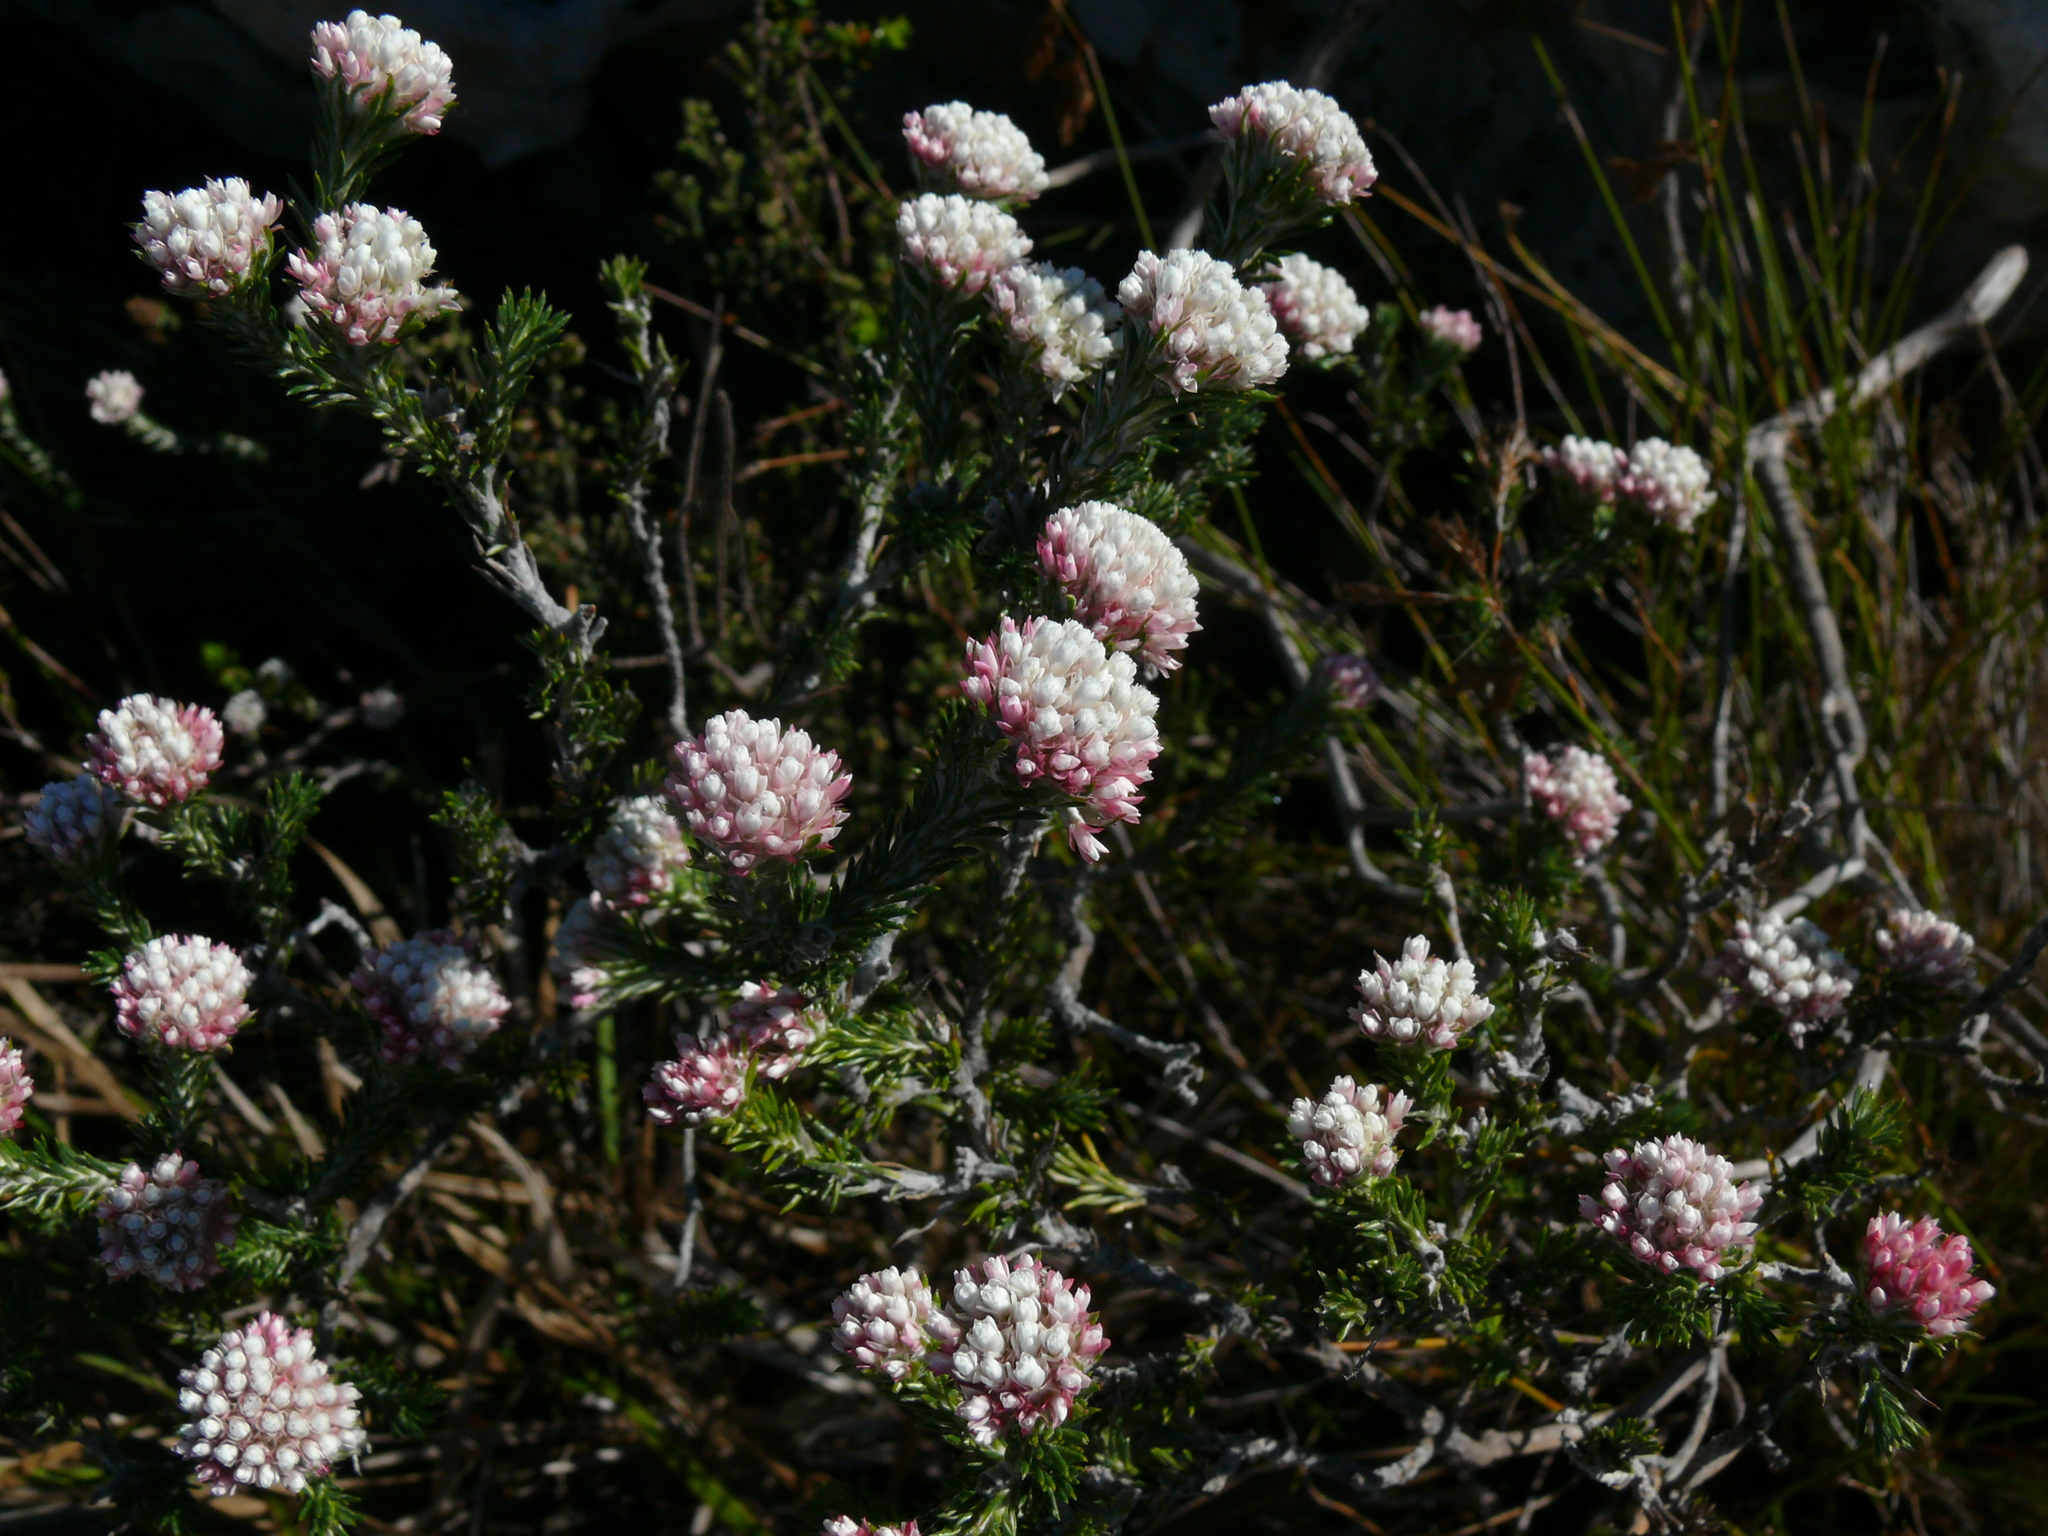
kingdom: Plantae
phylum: Tracheophyta
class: Magnoliopsida
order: Asterales
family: Asteraceae
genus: Metalasia
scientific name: Metalasia compacta
